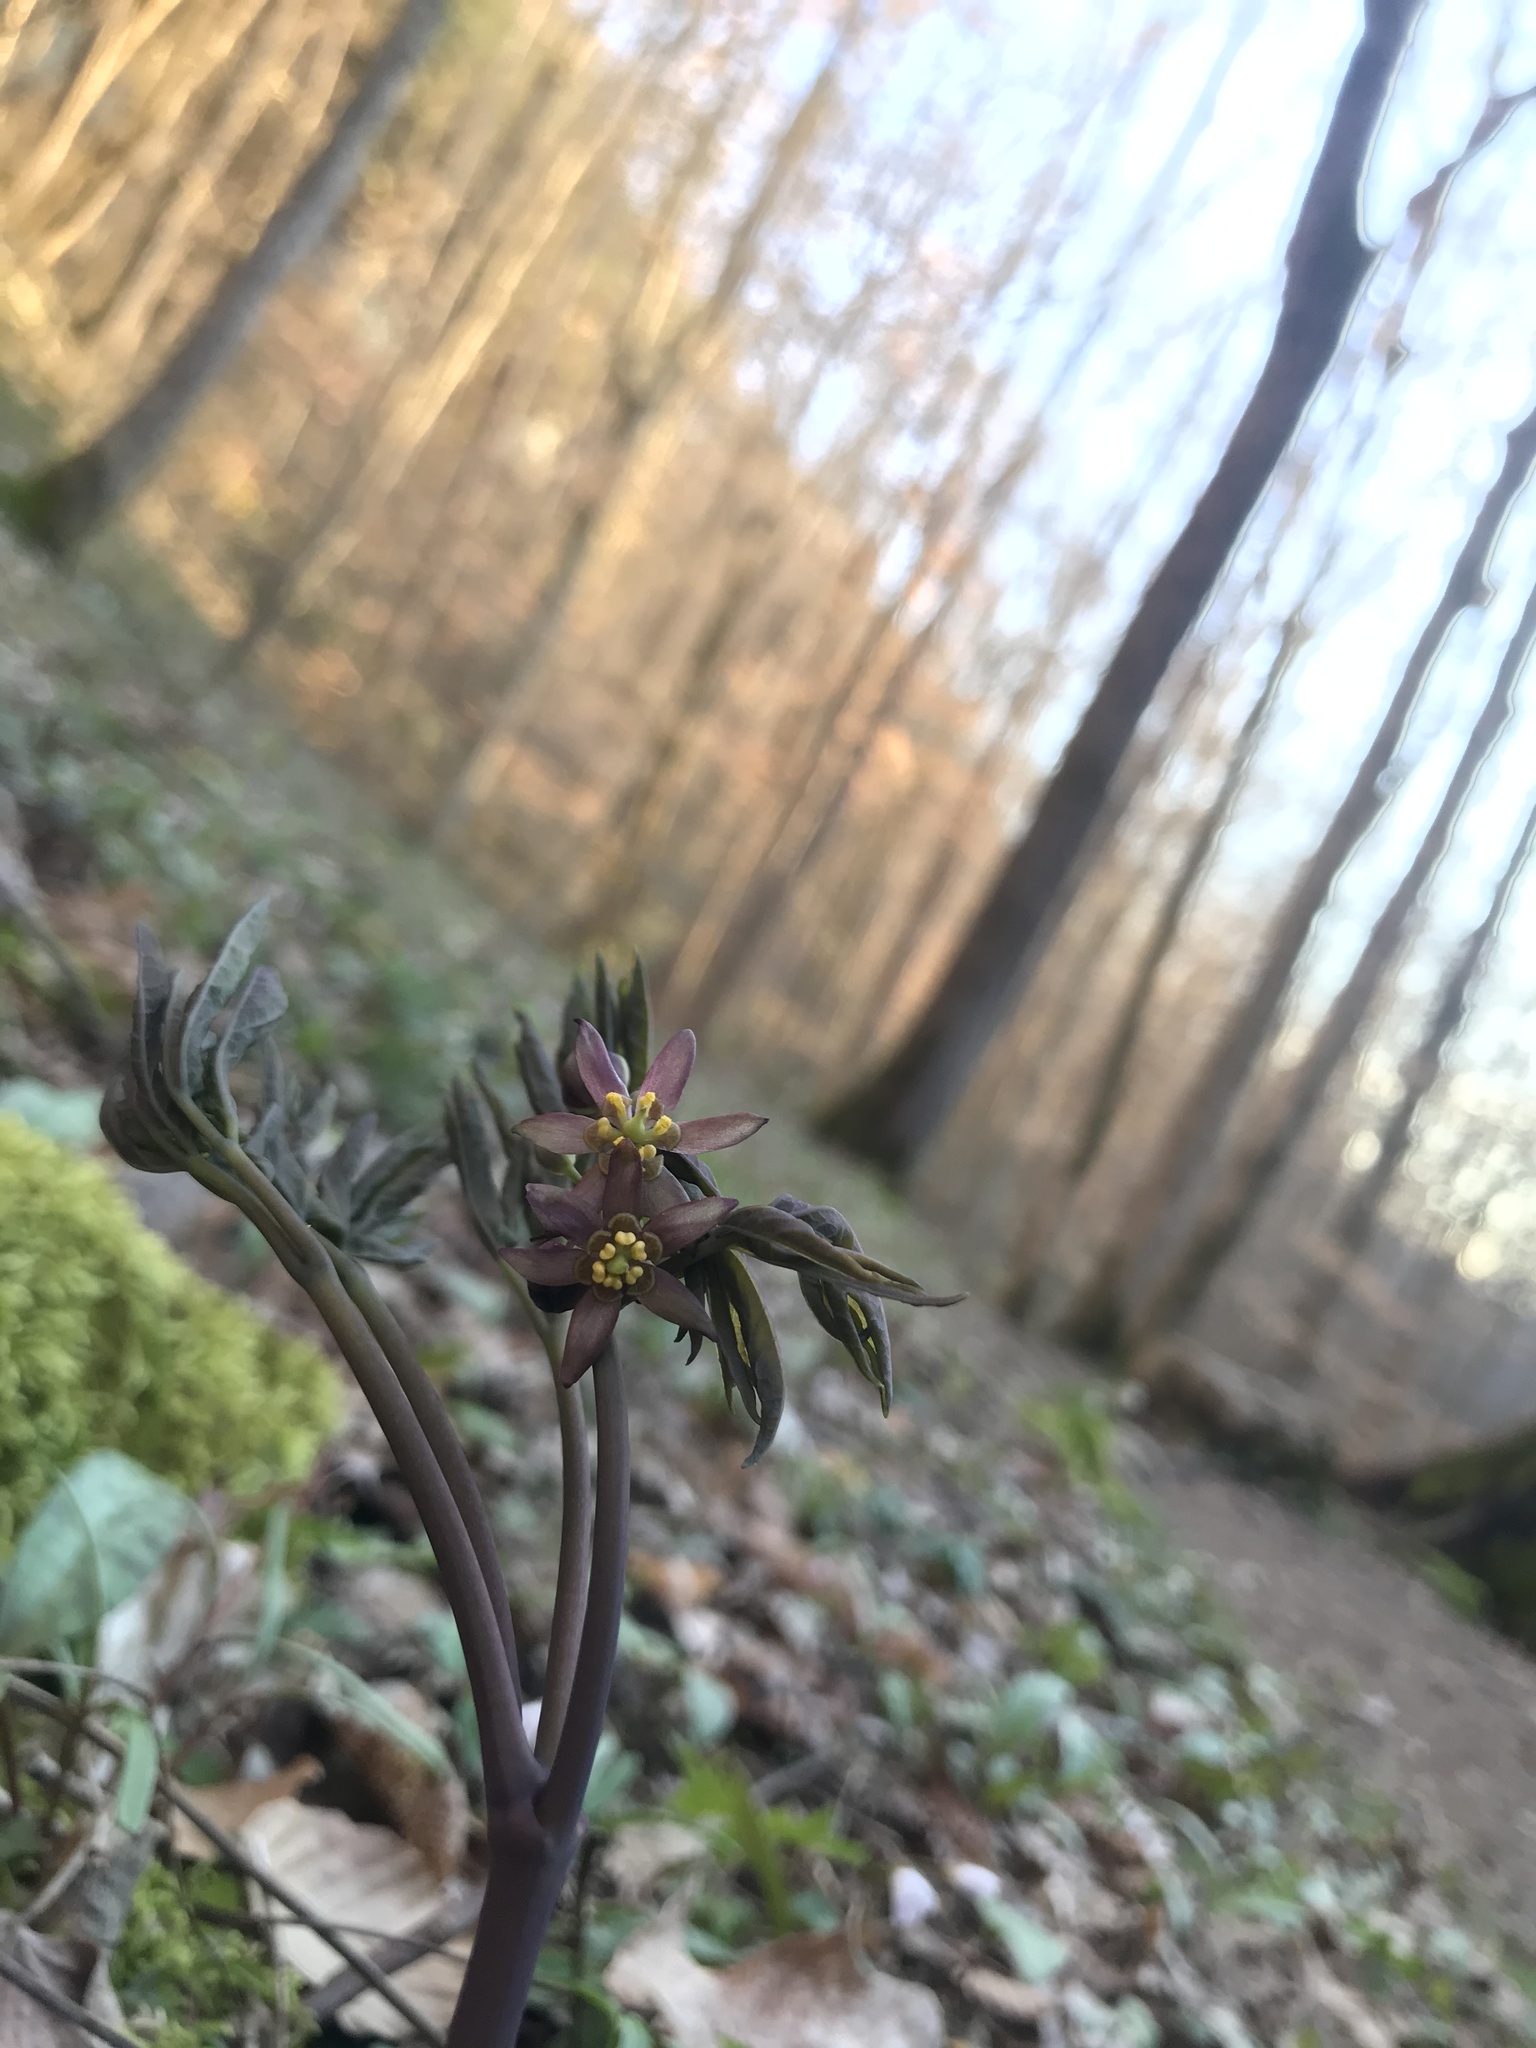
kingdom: Plantae
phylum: Tracheophyta
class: Magnoliopsida
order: Ranunculales
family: Berberidaceae
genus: Caulophyllum
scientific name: Caulophyllum giganteum
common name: Blue cohosh
